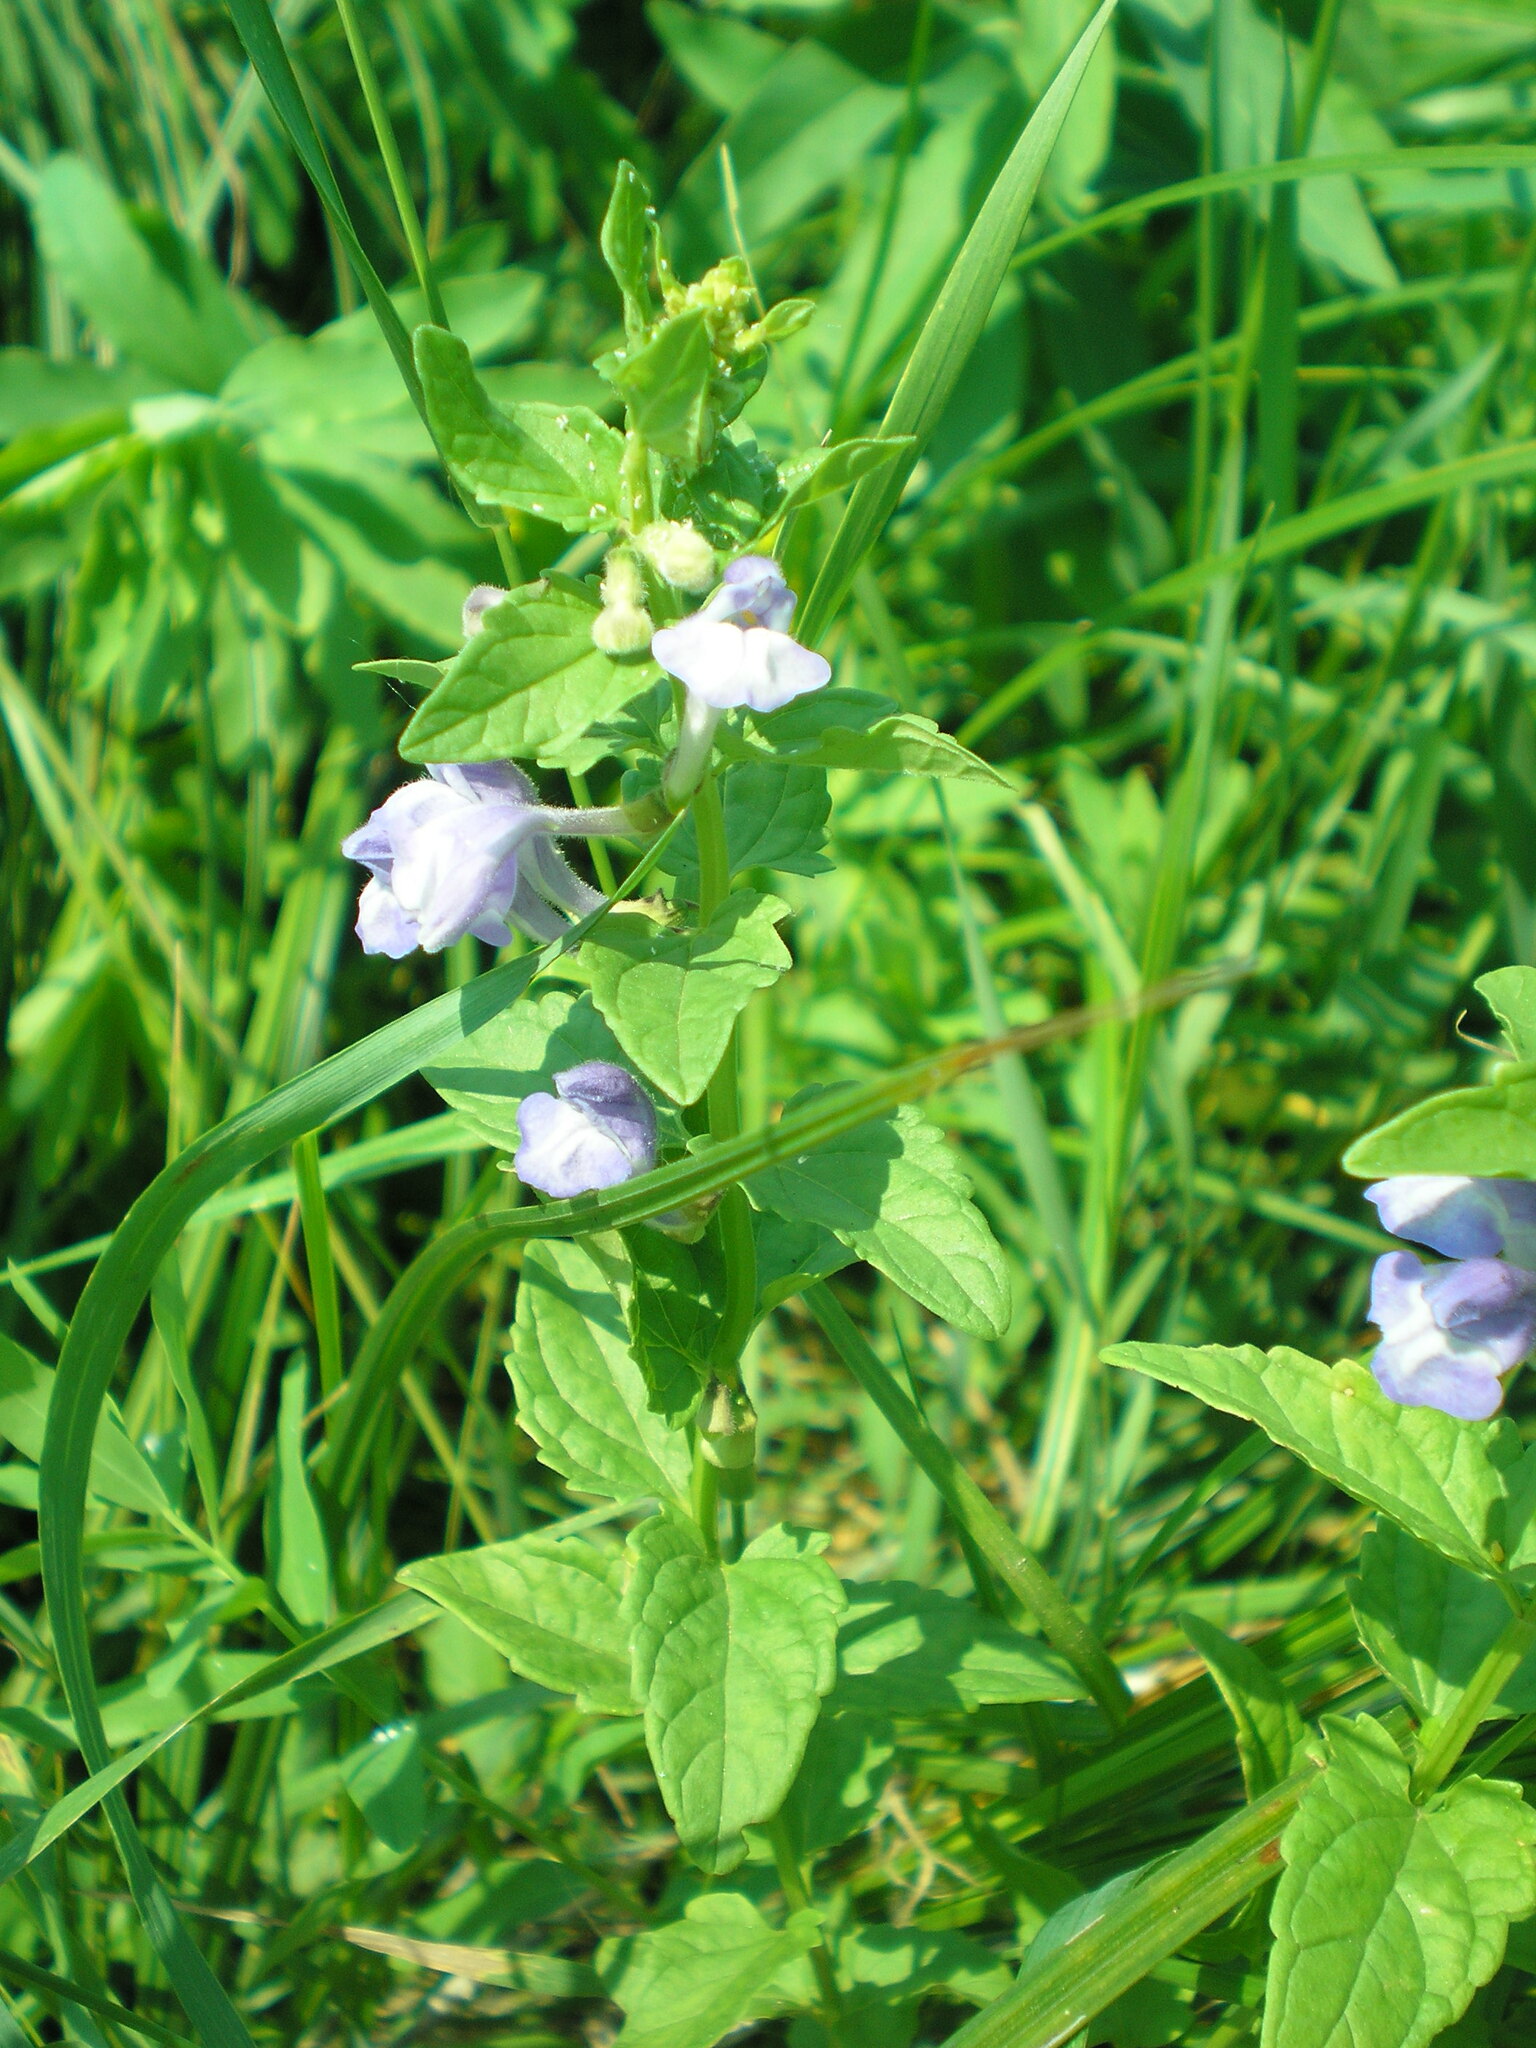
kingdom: Plantae
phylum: Tracheophyta
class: Magnoliopsida
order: Lamiales
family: Lamiaceae
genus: Scutellaria
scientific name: Scutellaria hastifolia
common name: Norfolk skullcap
